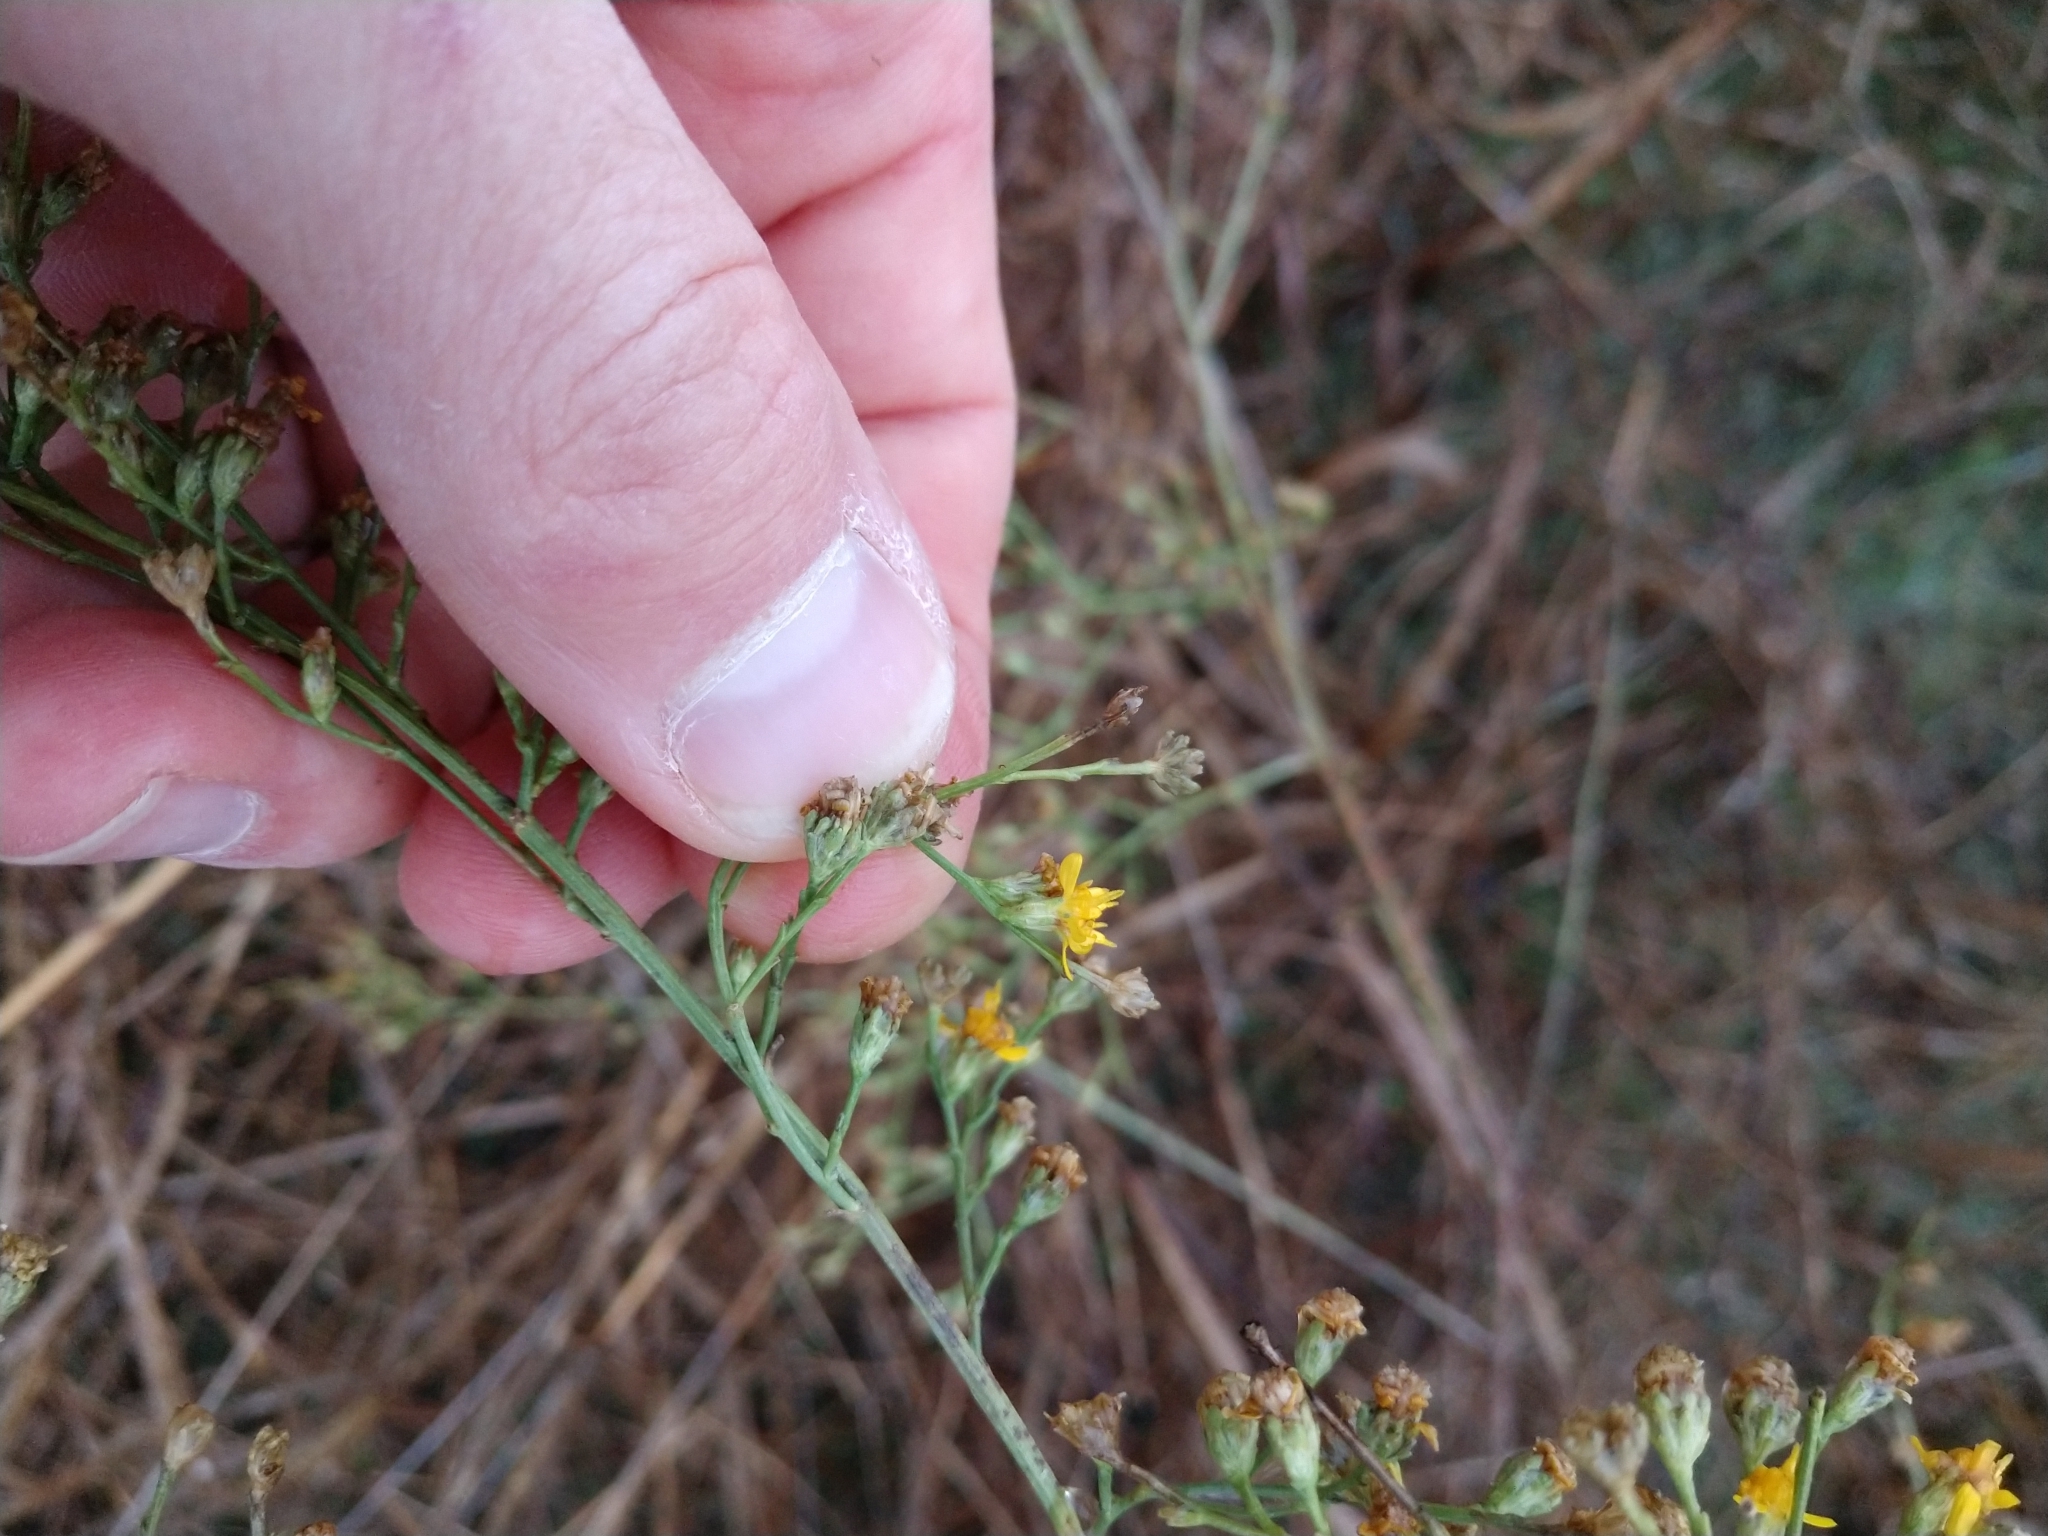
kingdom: Plantae
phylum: Tracheophyta
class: Magnoliopsida
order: Asterales
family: Asteraceae
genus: Gutierrezia
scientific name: Gutierrezia texana
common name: Texas snakeweed
